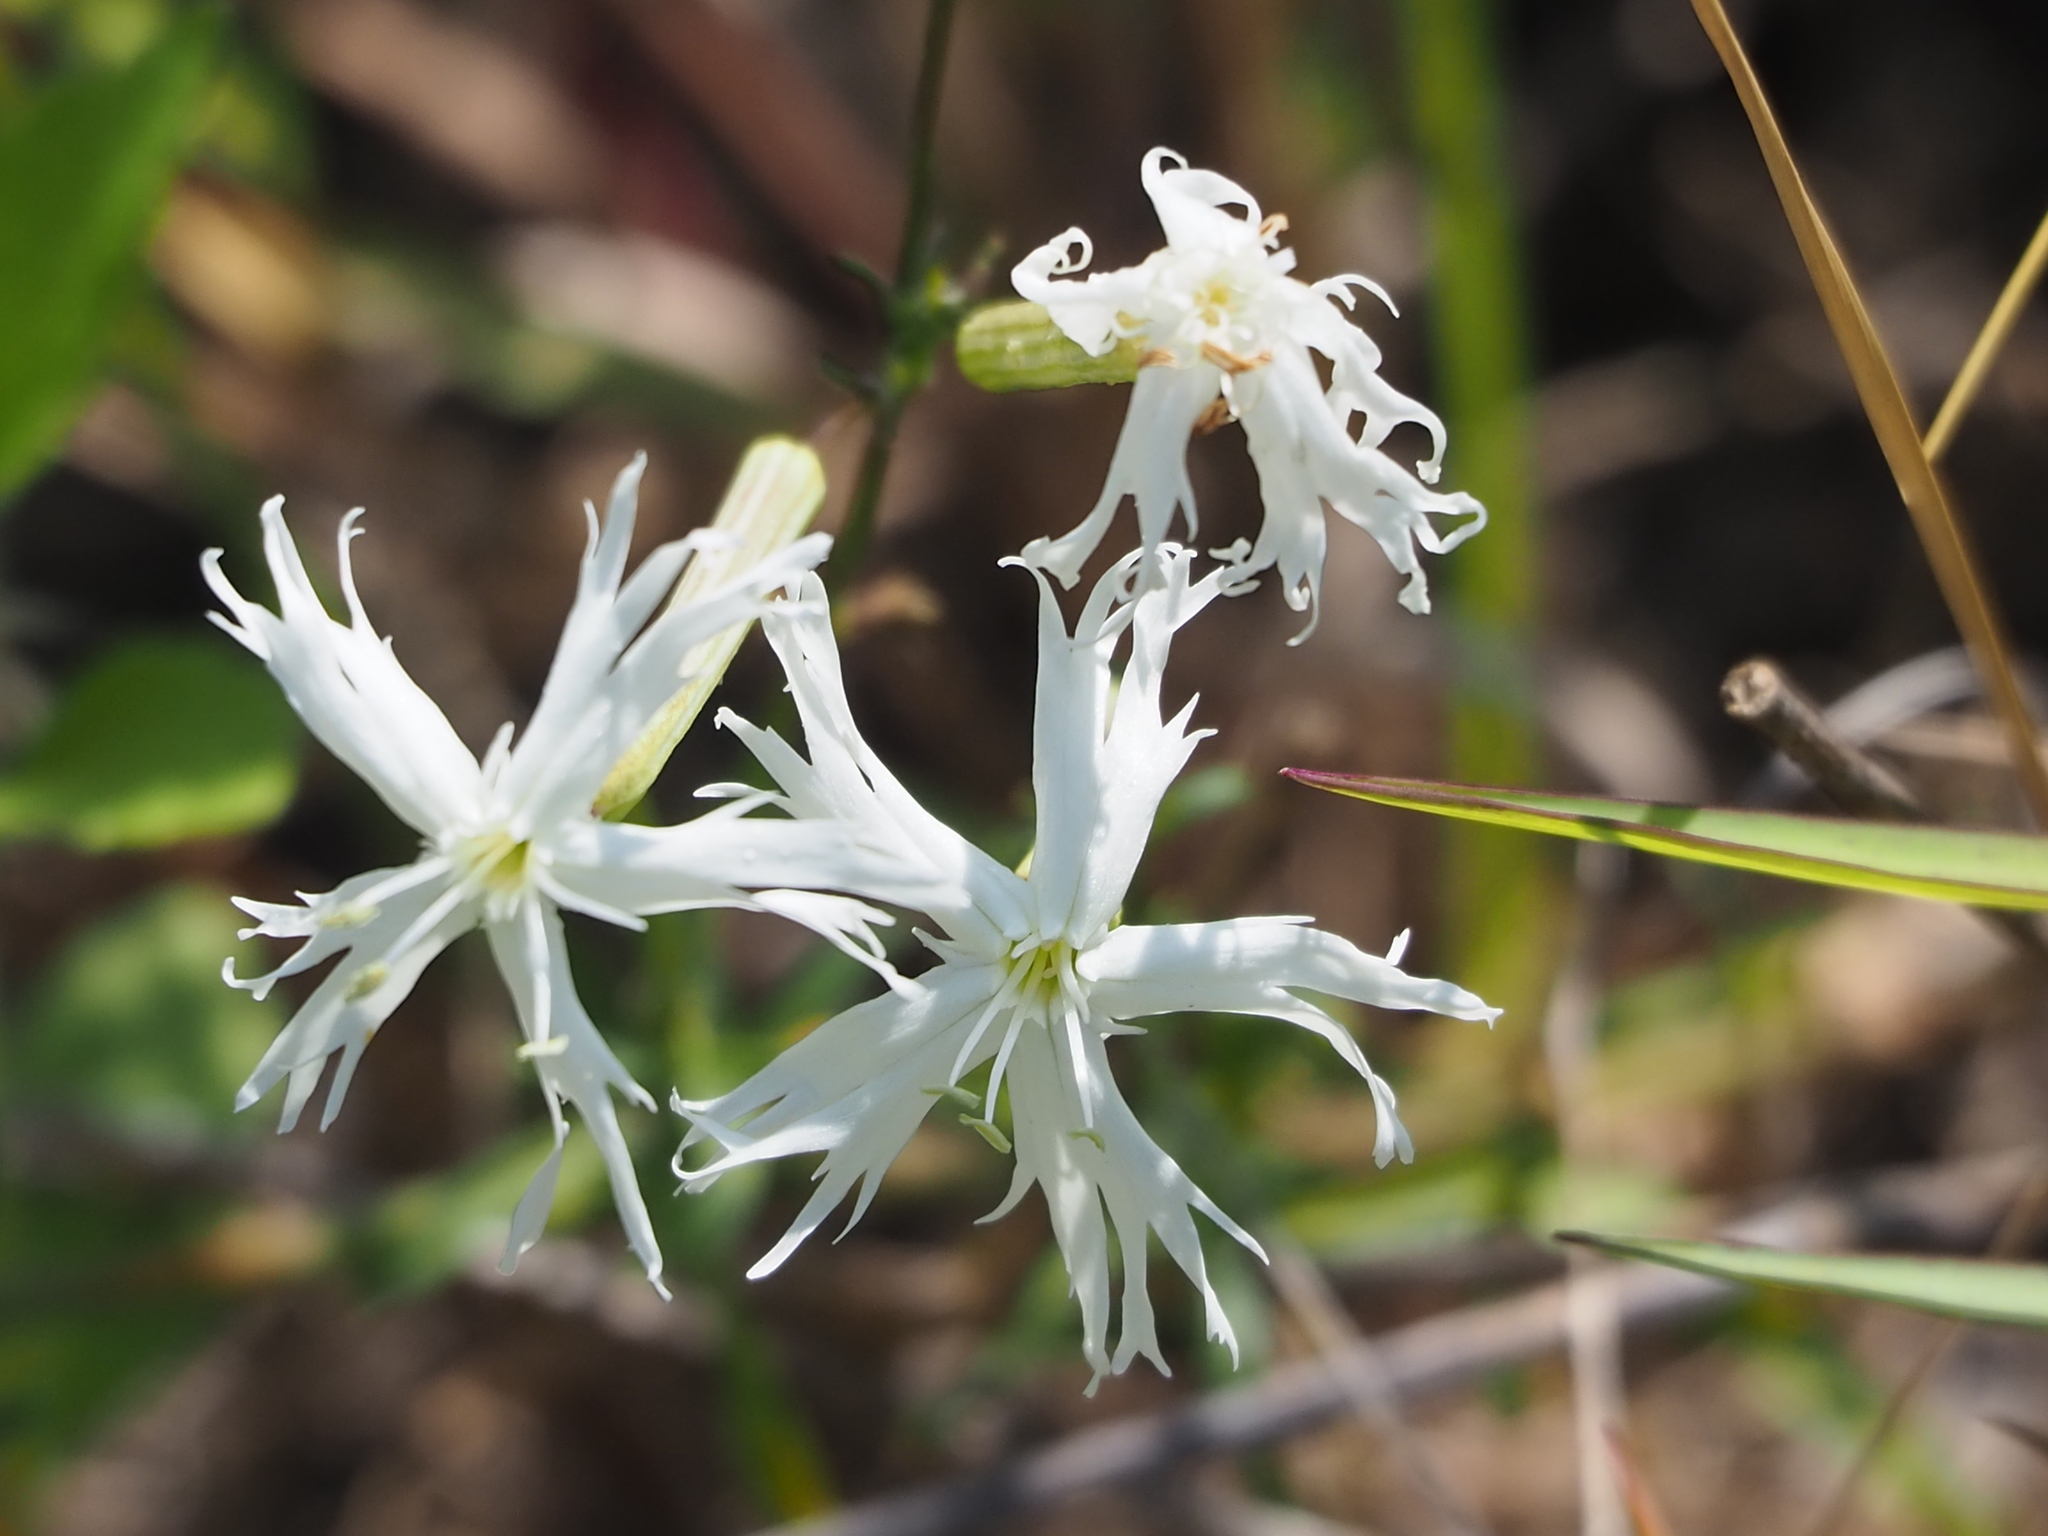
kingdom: Plantae
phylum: Tracheophyta
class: Magnoliopsida
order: Caryophyllales
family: Caryophyllaceae
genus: Silene
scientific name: Silene fissipetala
